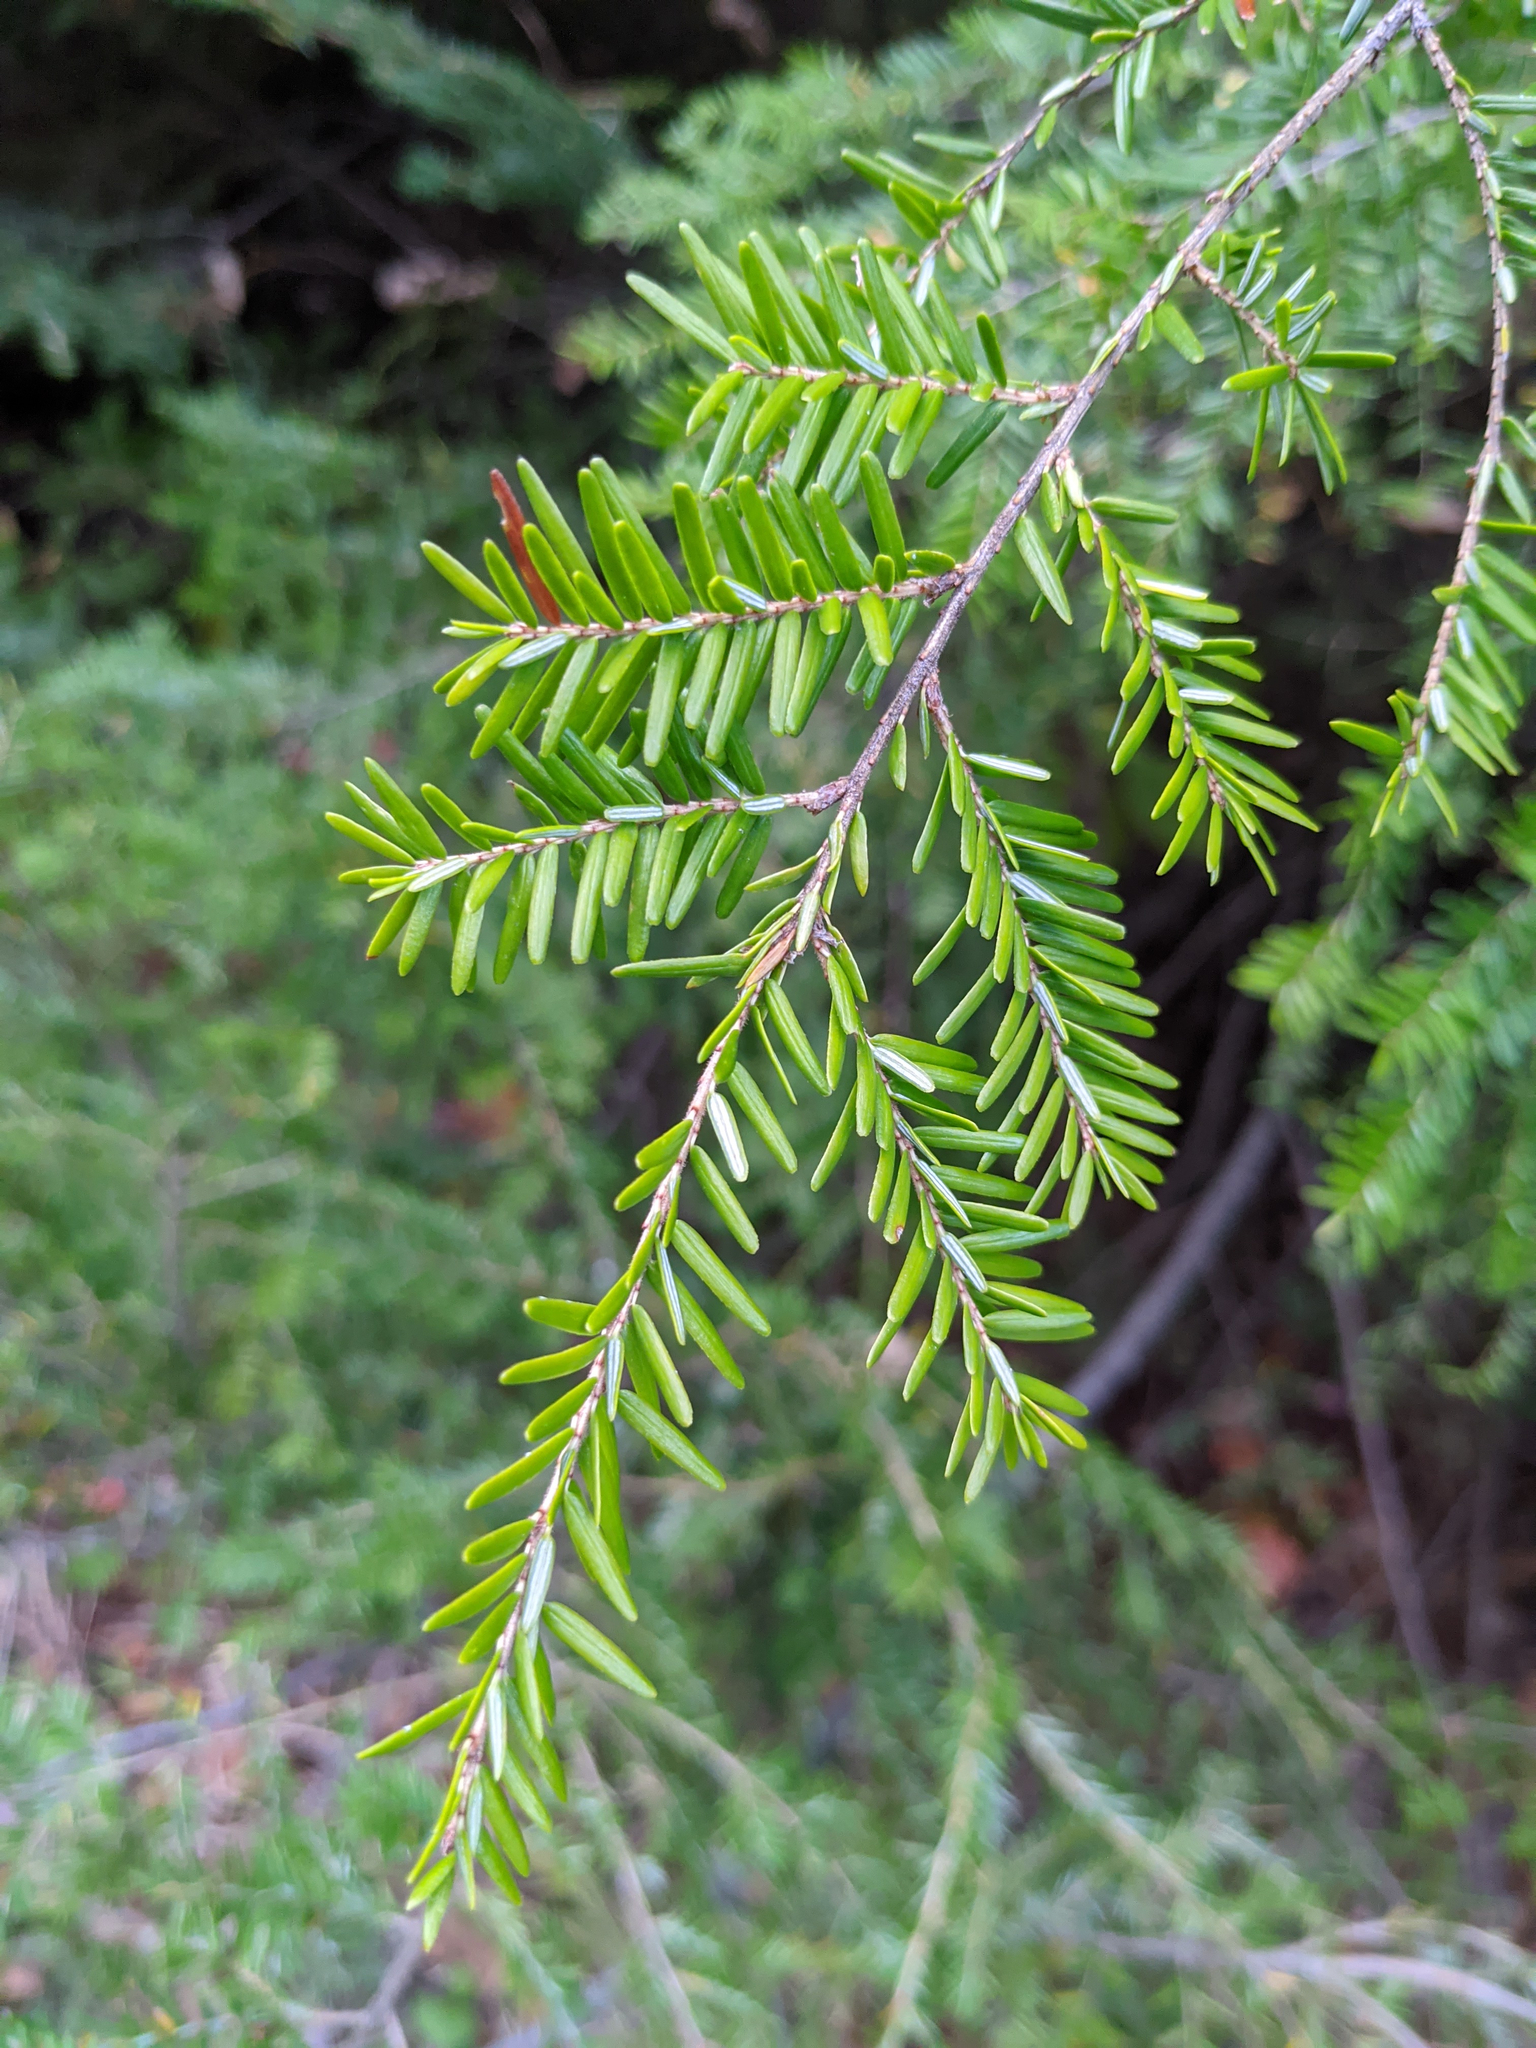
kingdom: Plantae
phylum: Tracheophyta
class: Pinopsida
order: Pinales
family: Pinaceae
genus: Tsuga
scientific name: Tsuga canadensis
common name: Eastern hemlock
